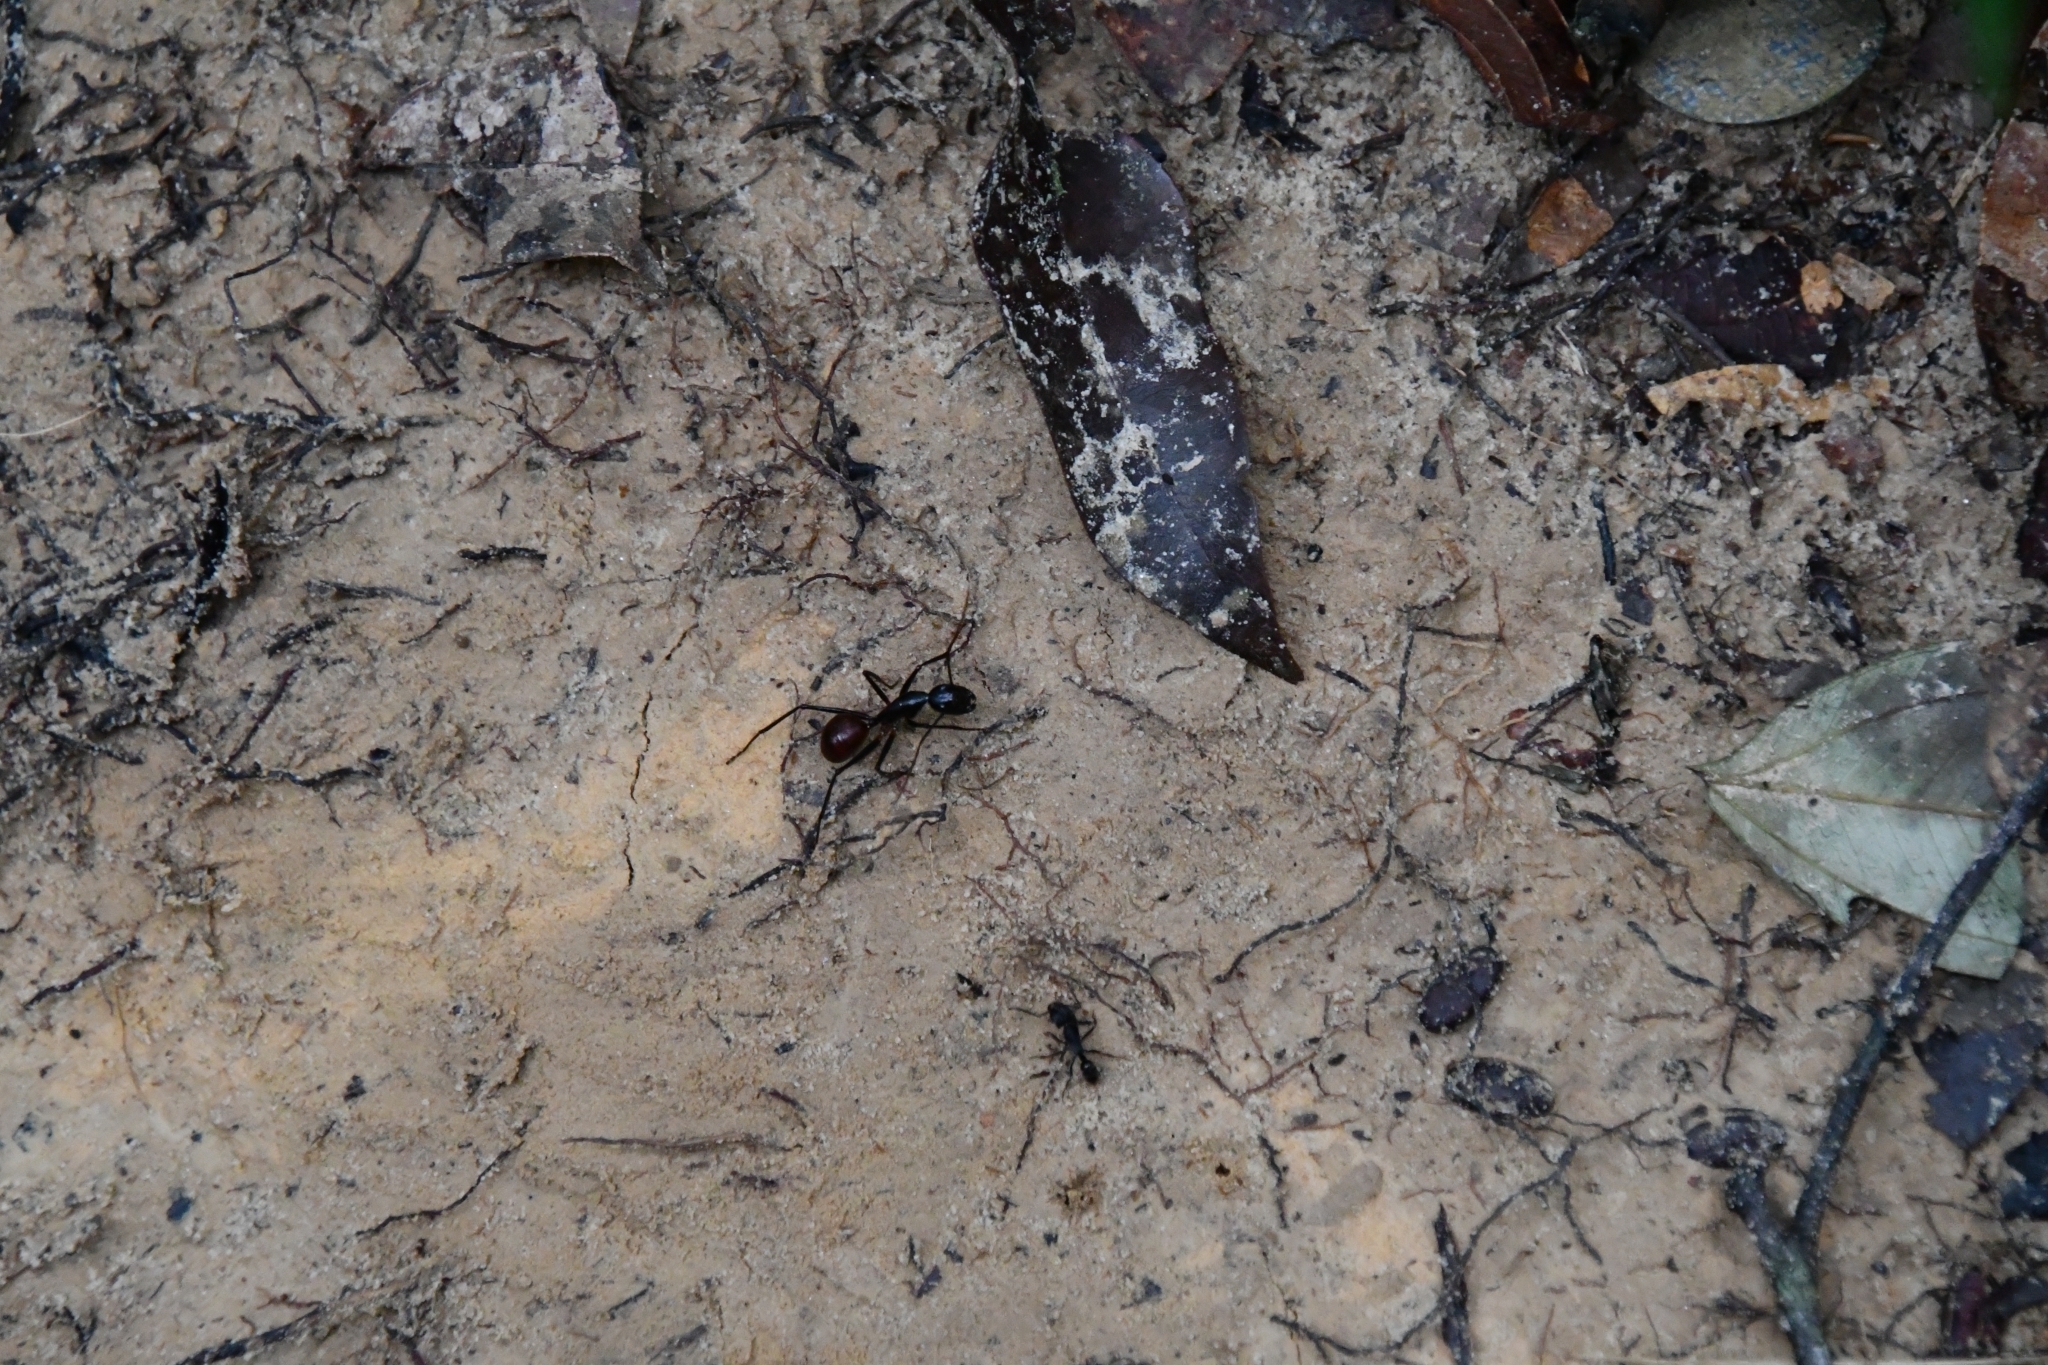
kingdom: Animalia
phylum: Arthropoda
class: Insecta
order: Hymenoptera
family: Formicidae
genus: Dinomyrmex
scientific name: Dinomyrmex
